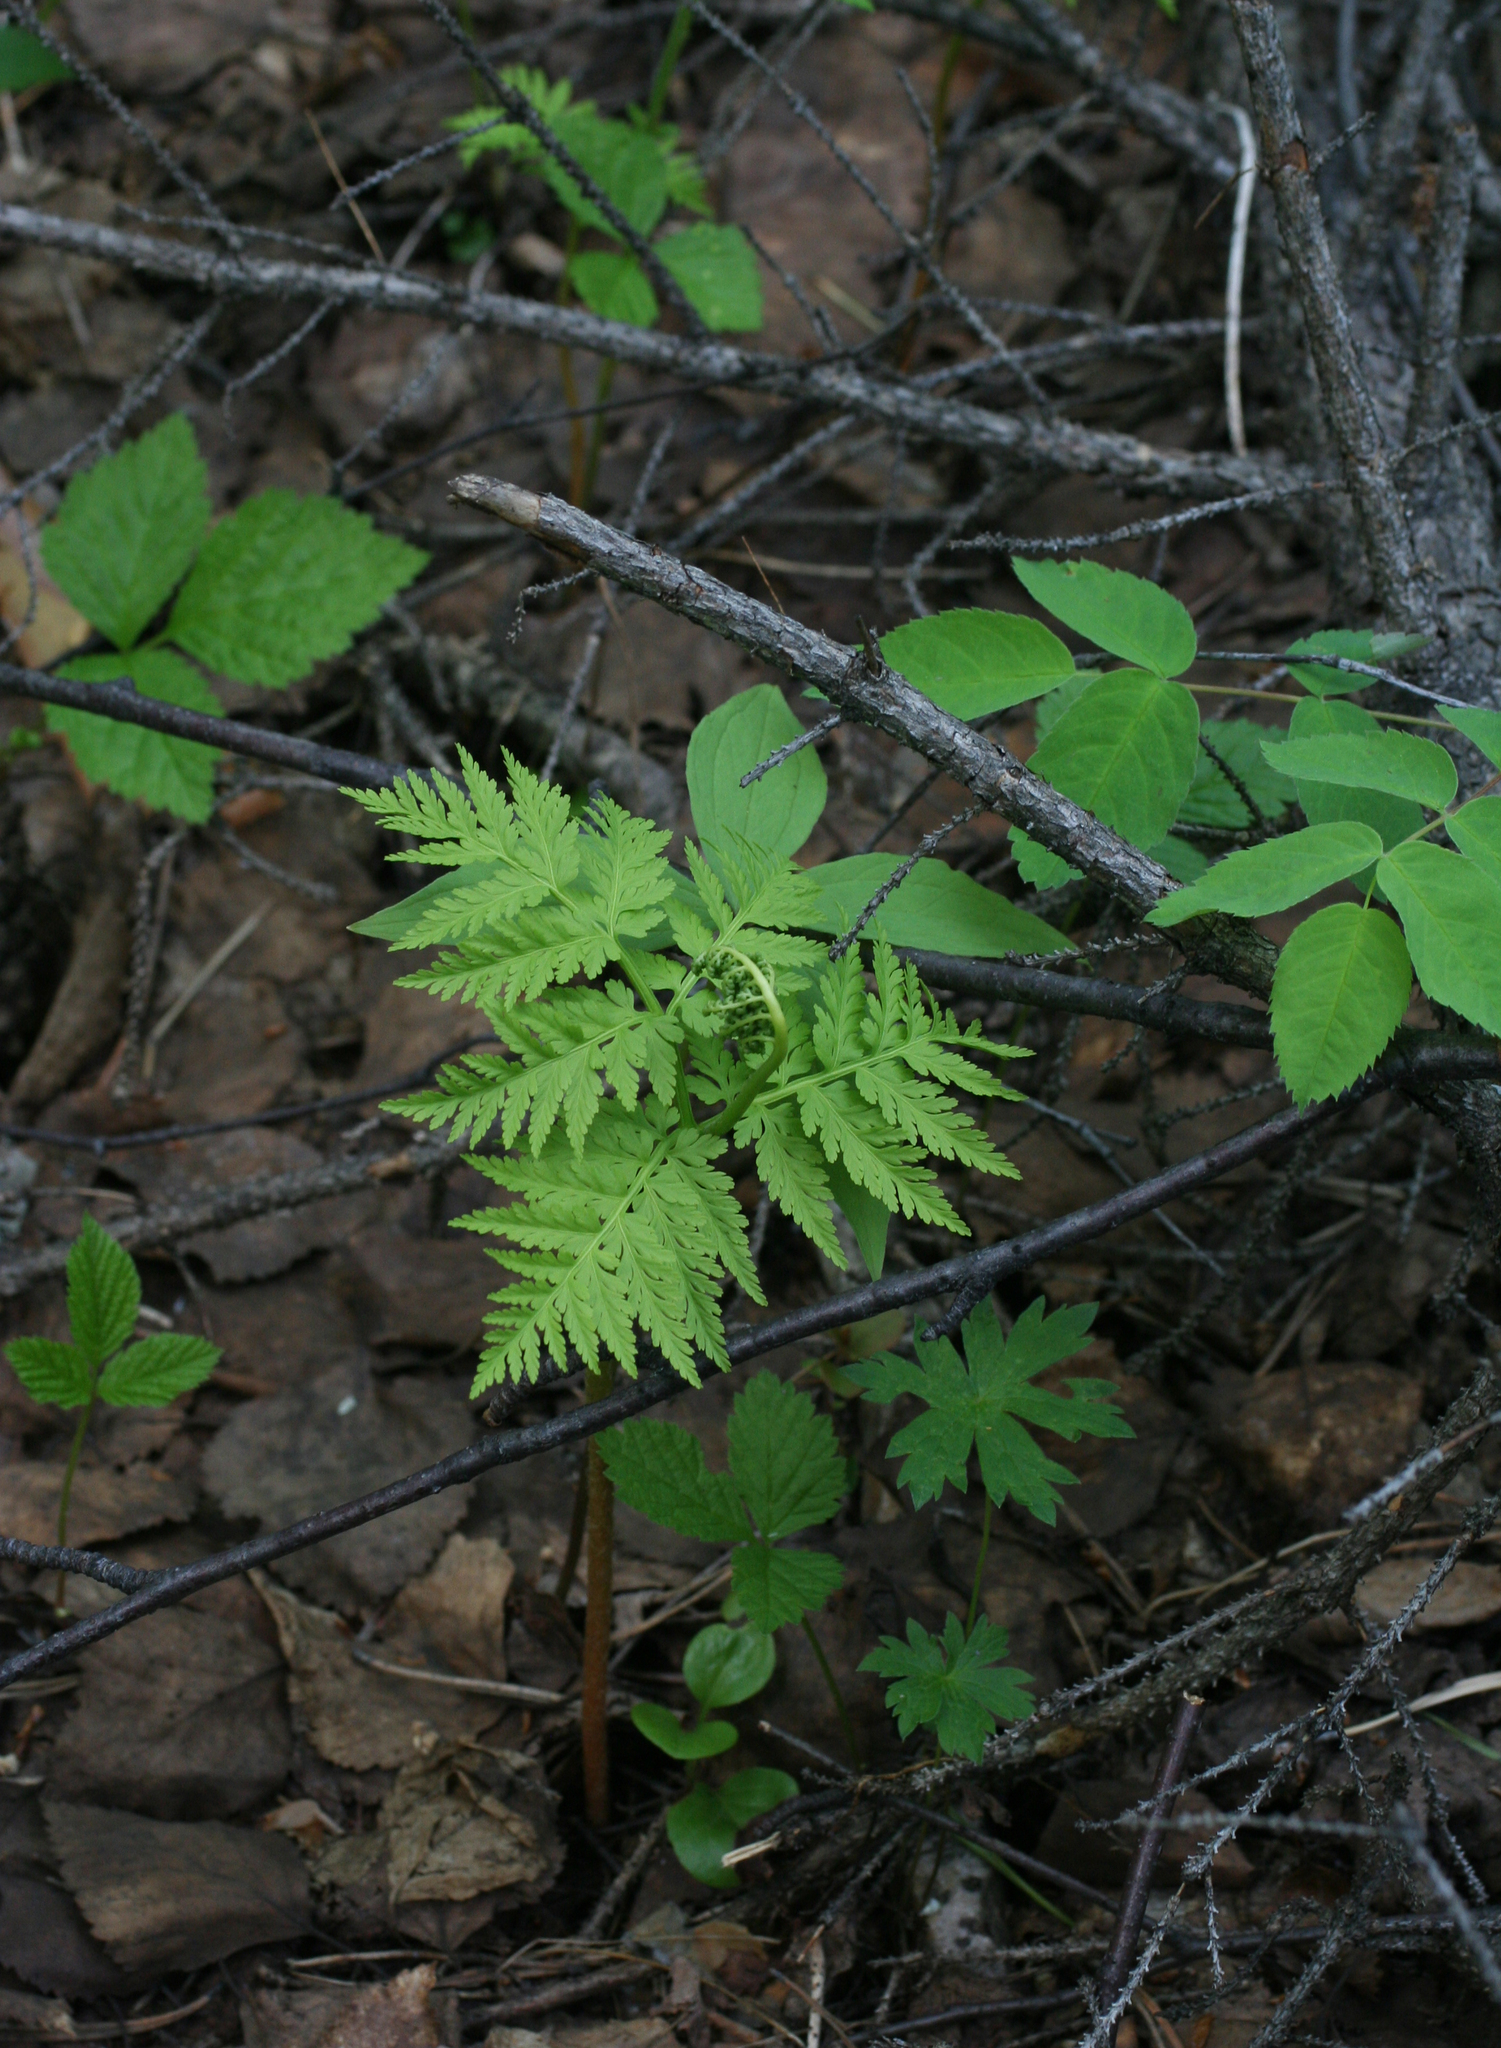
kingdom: Plantae
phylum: Tracheophyta
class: Polypodiopsida
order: Ophioglossales
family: Ophioglossaceae
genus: Botrypus
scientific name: Botrypus virginianus
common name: Common grapefern
